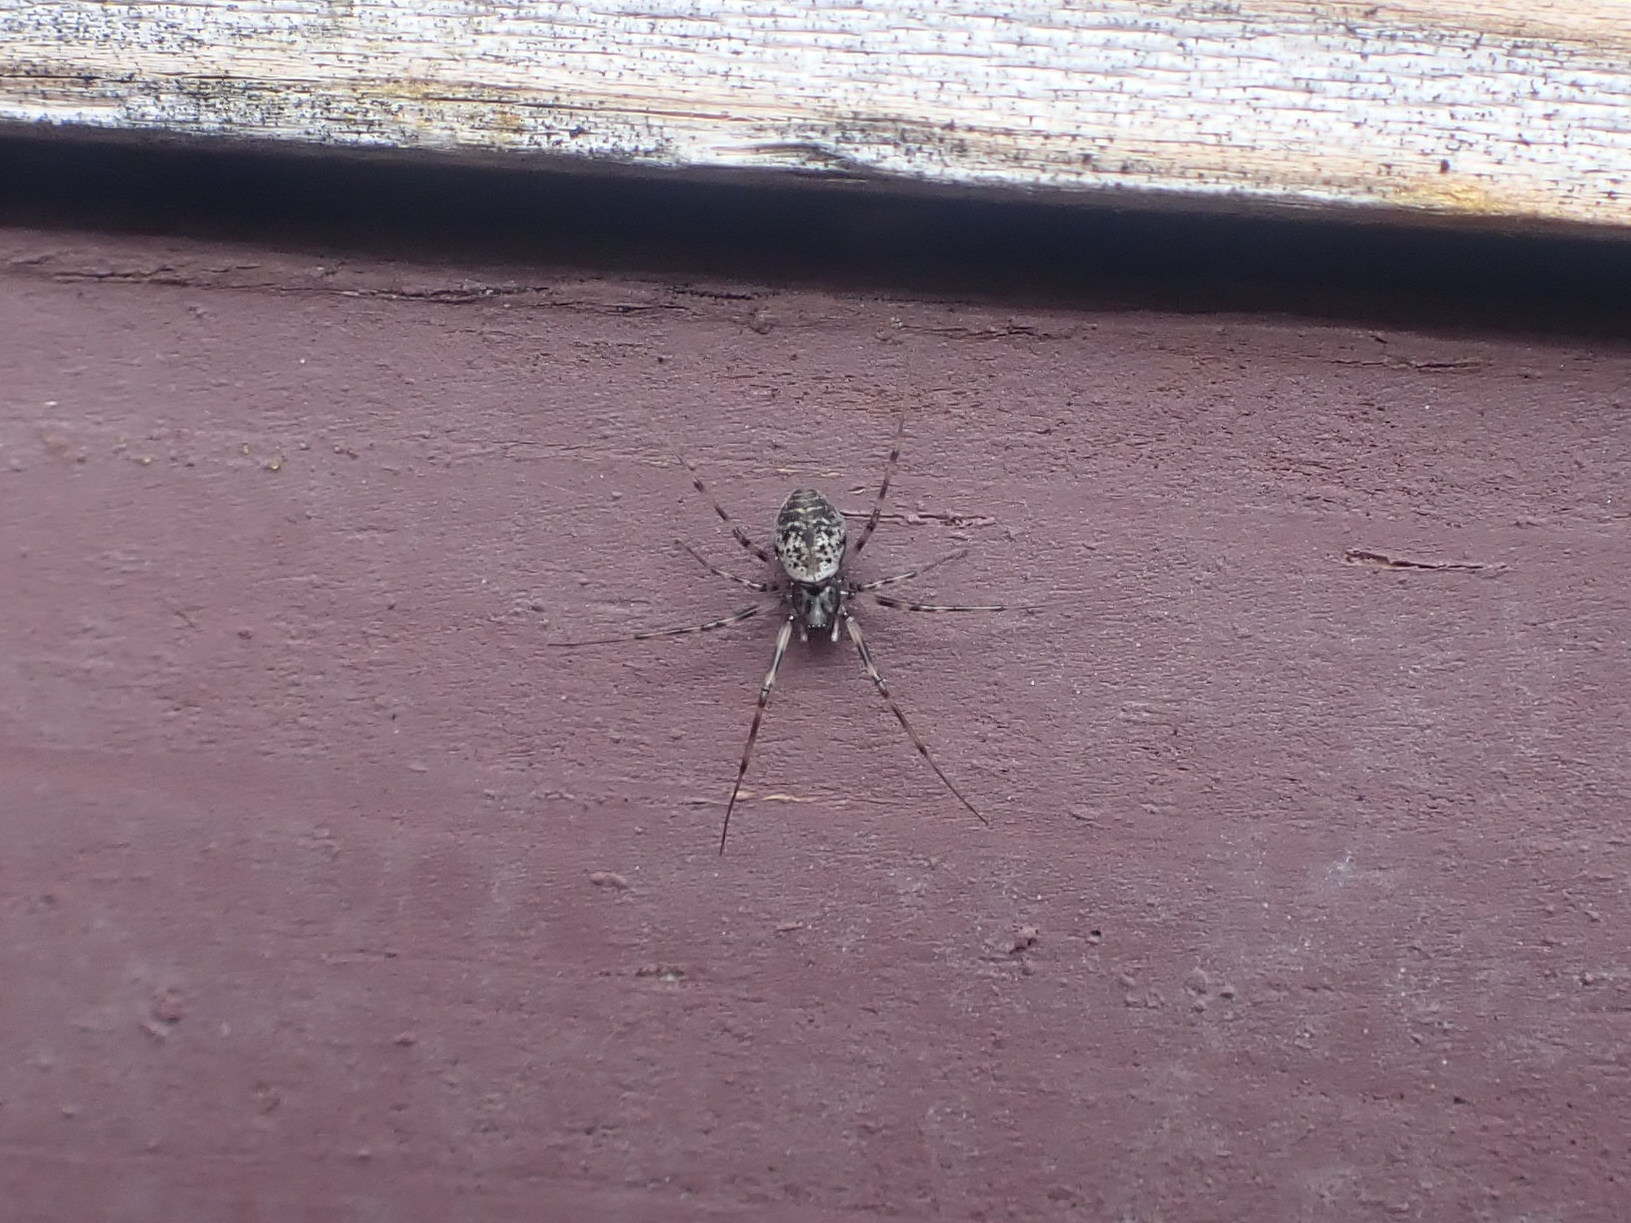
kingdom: Animalia
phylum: Arthropoda
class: Arachnida
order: Araneae
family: Linyphiidae
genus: Drapetisca
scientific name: Drapetisca alteranda
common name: Northern long-toothed sheetweaver
